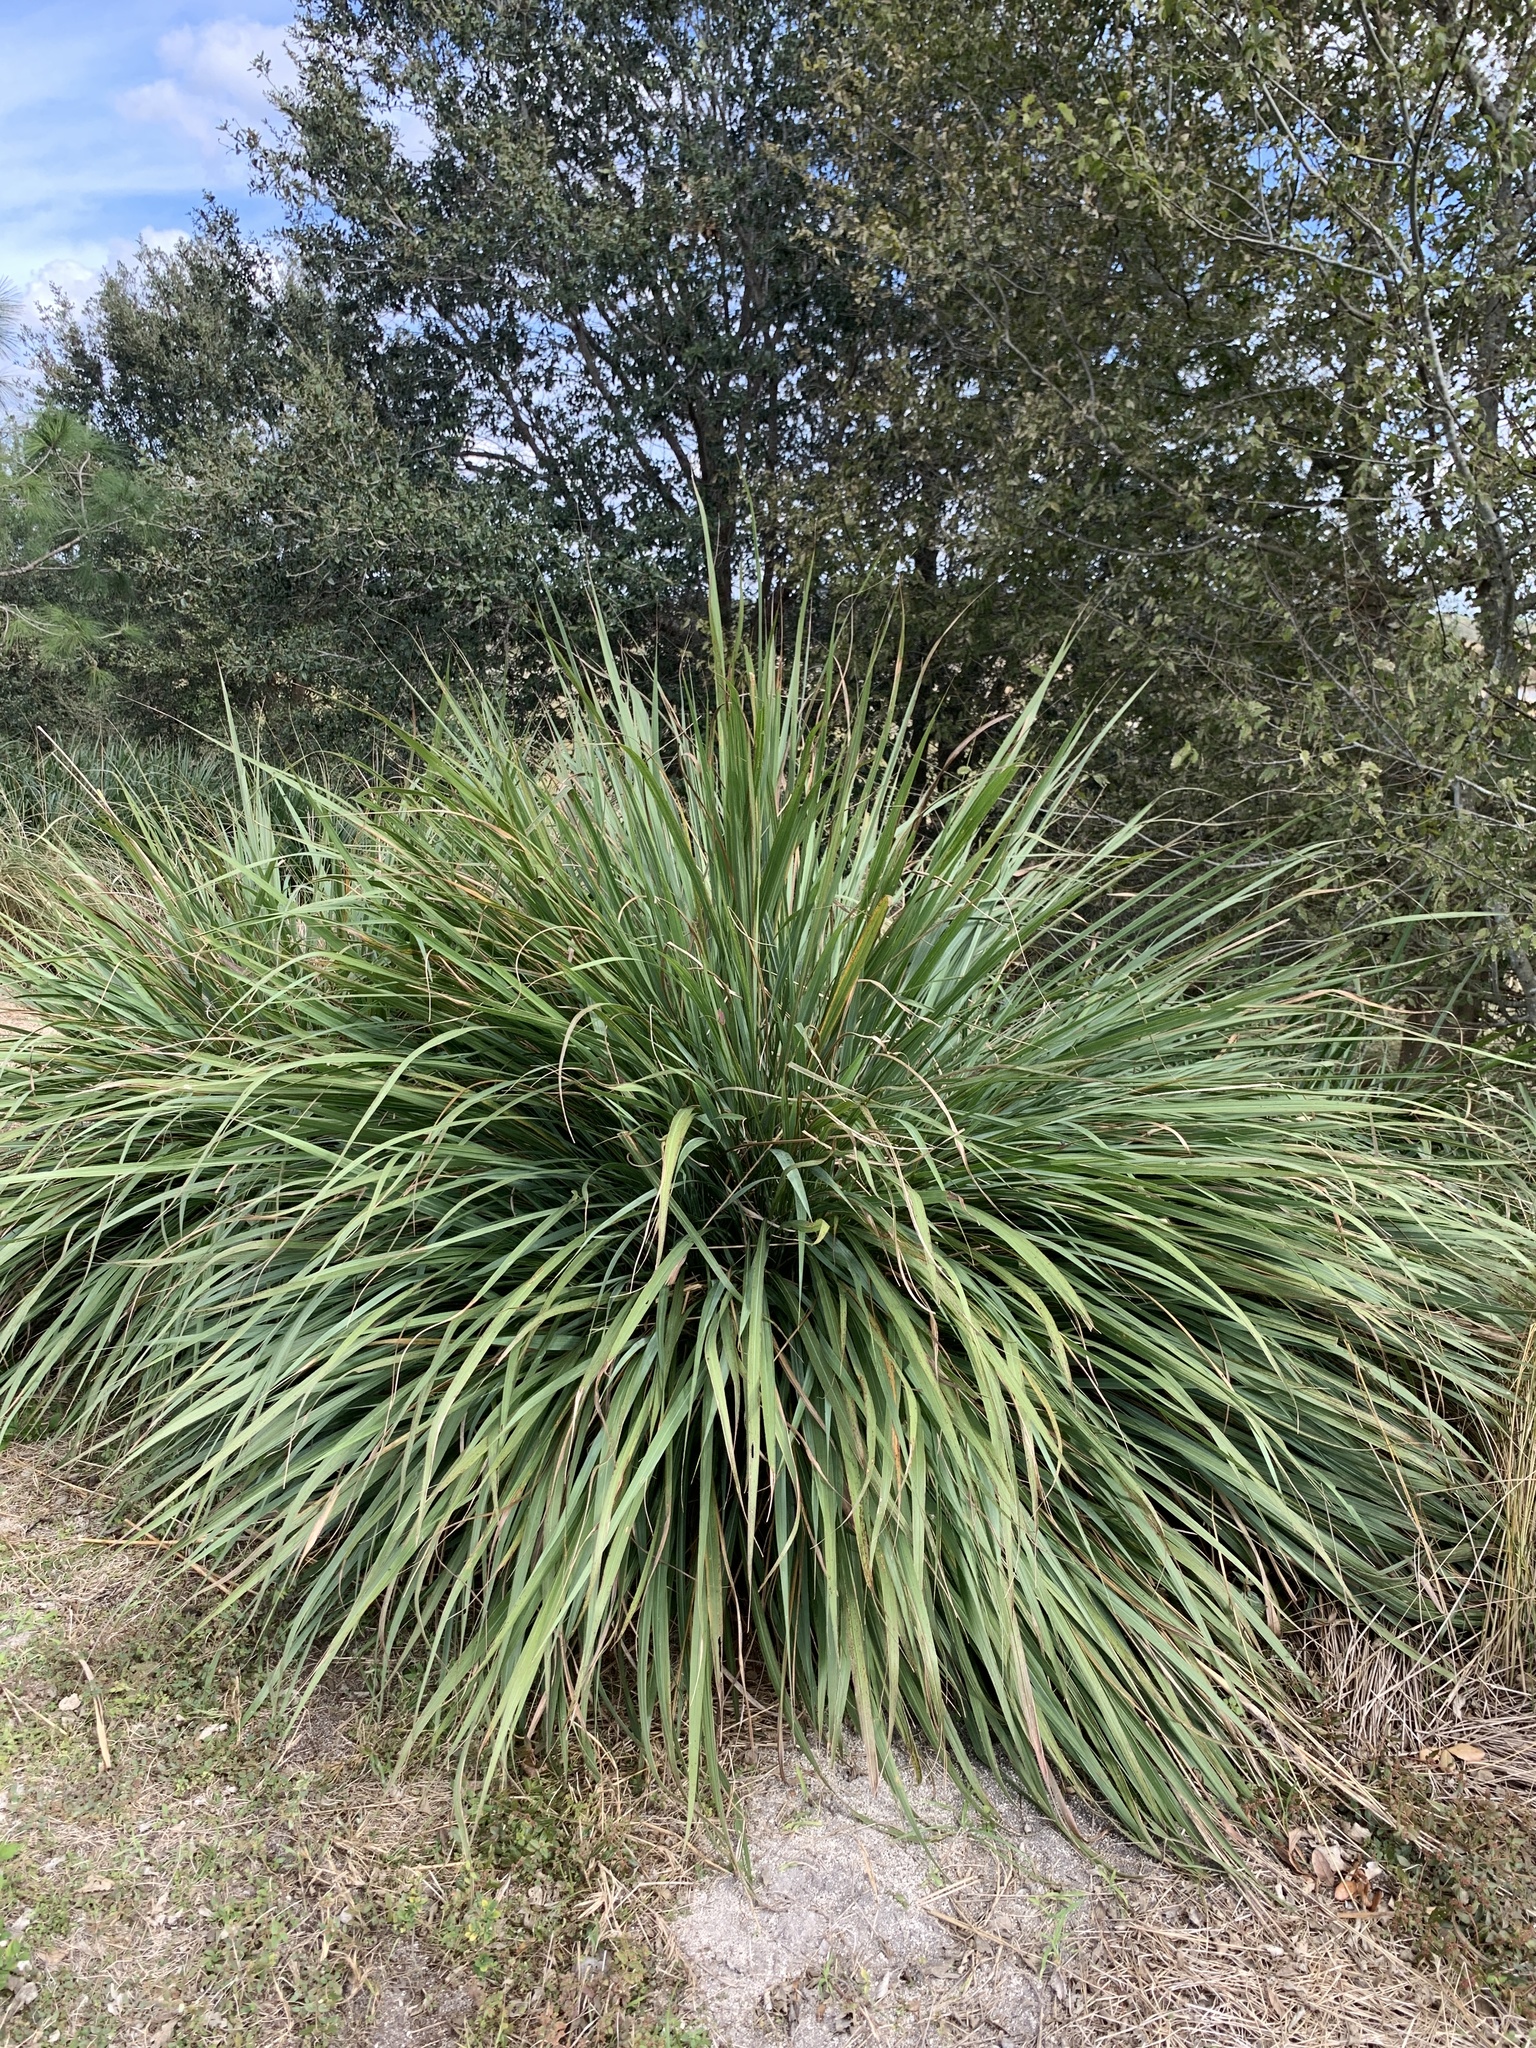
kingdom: Plantae
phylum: Tracheophyta
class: Liliopsida
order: Poales
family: Poaceae
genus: Tripsacum
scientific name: Tripsacum dactyloides
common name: Buffalo-grass
